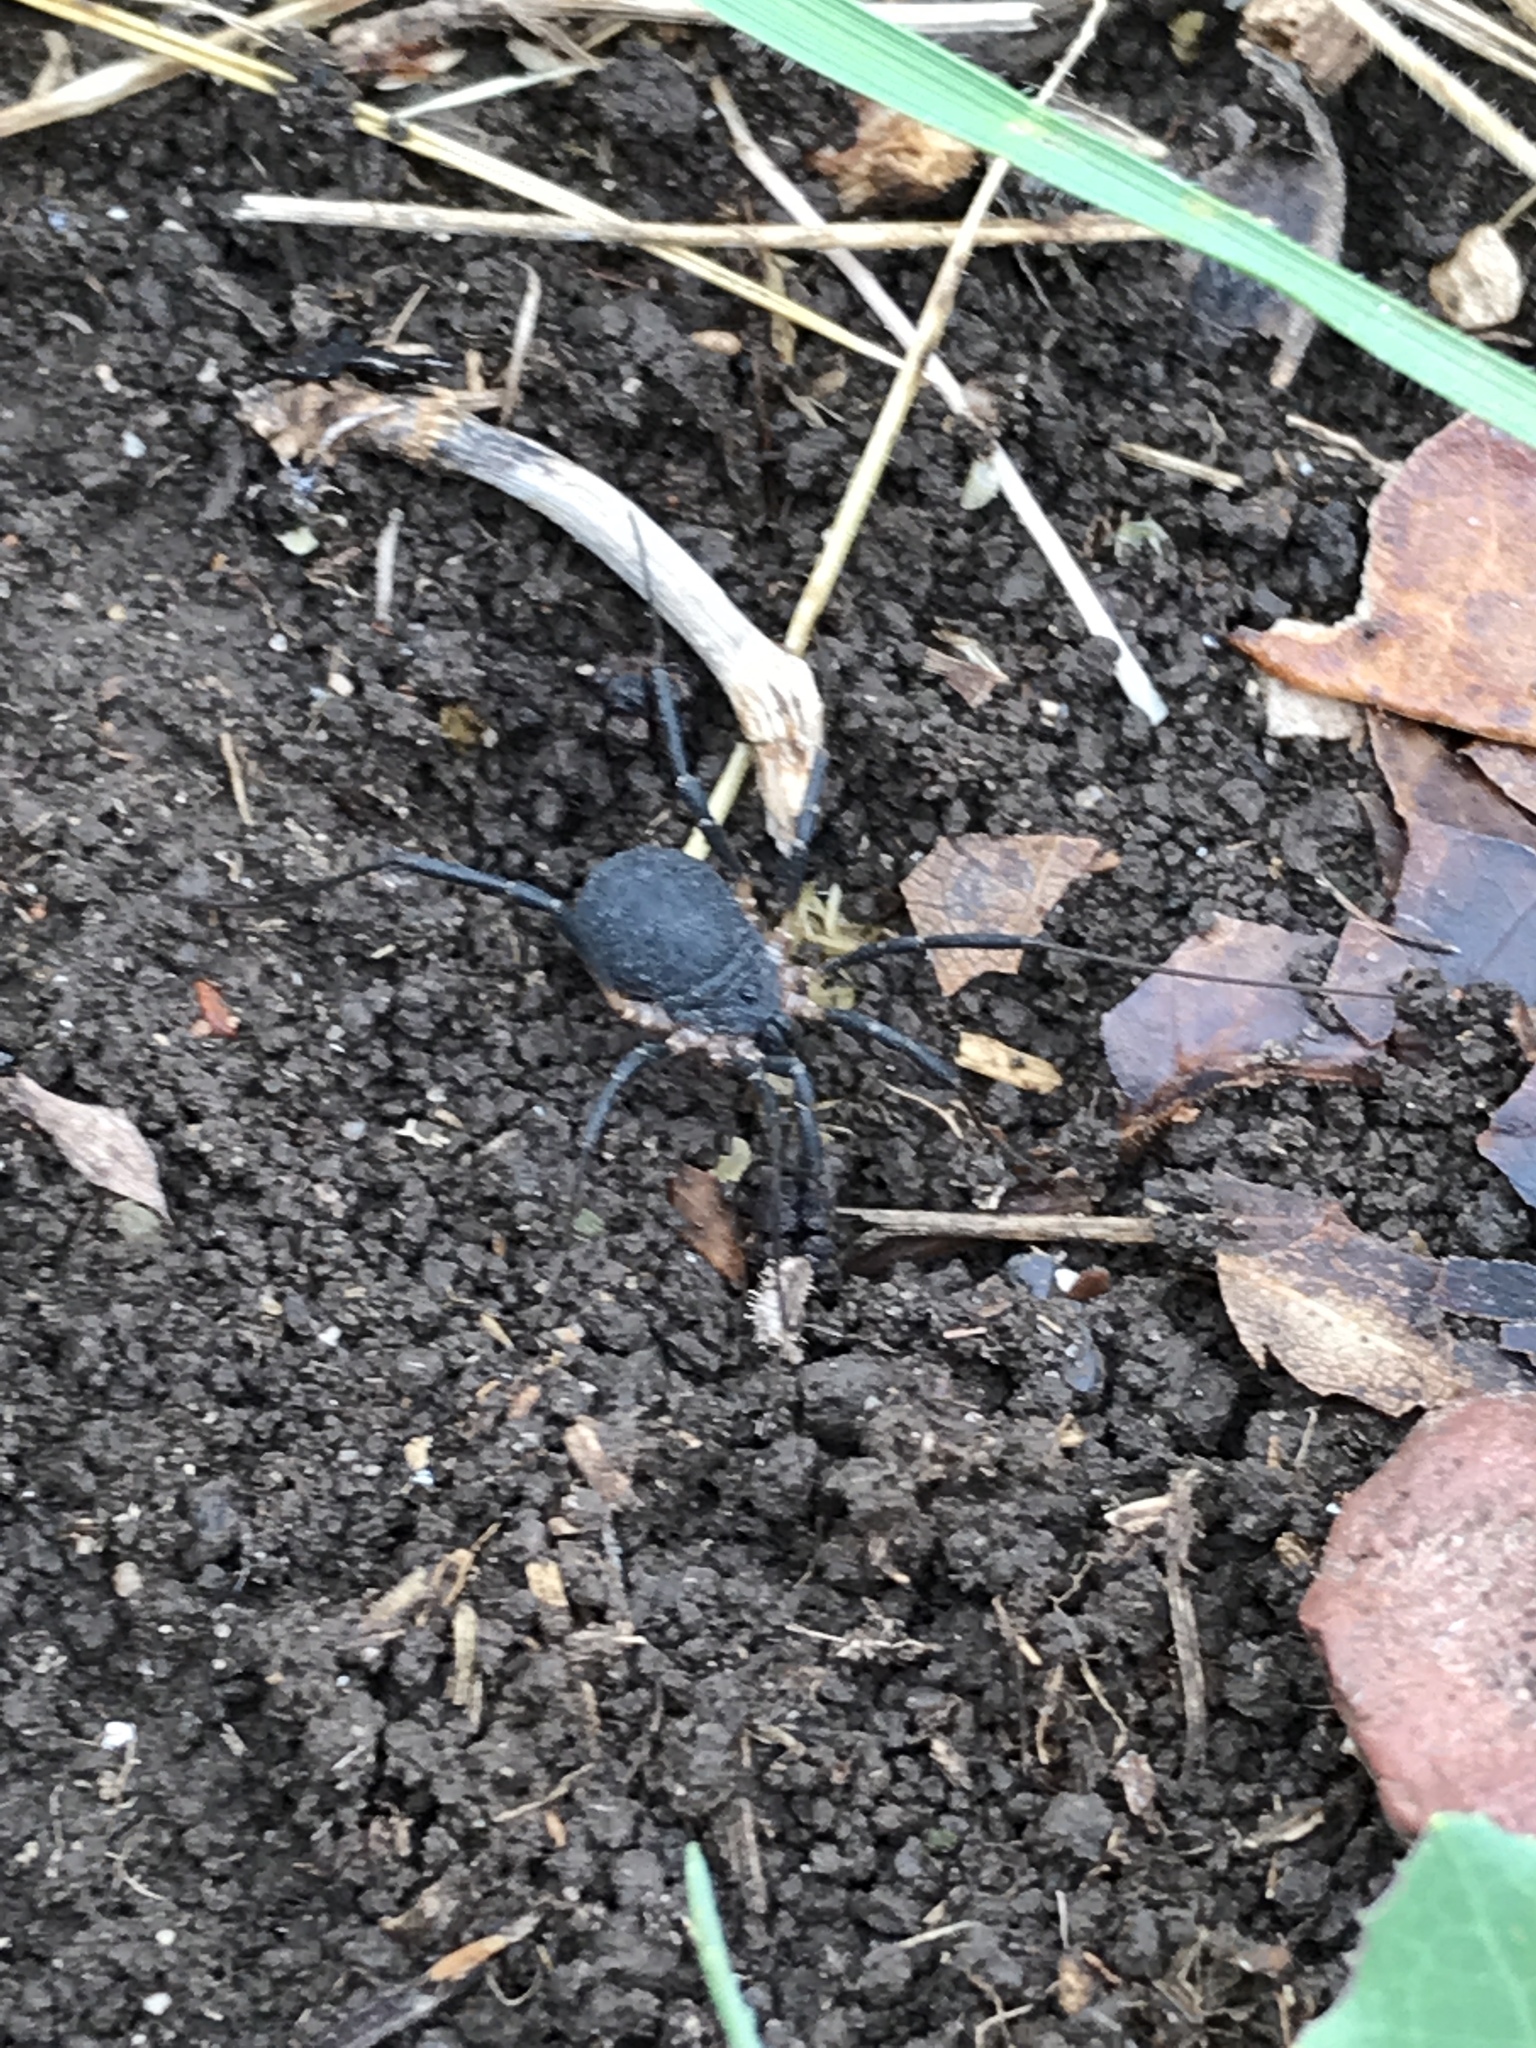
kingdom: Animalia
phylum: Arthropoda
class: Arachnida
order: Opiliones
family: Sclerosomatidae
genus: Eumesosoma
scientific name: Eumesosoma roeweri
